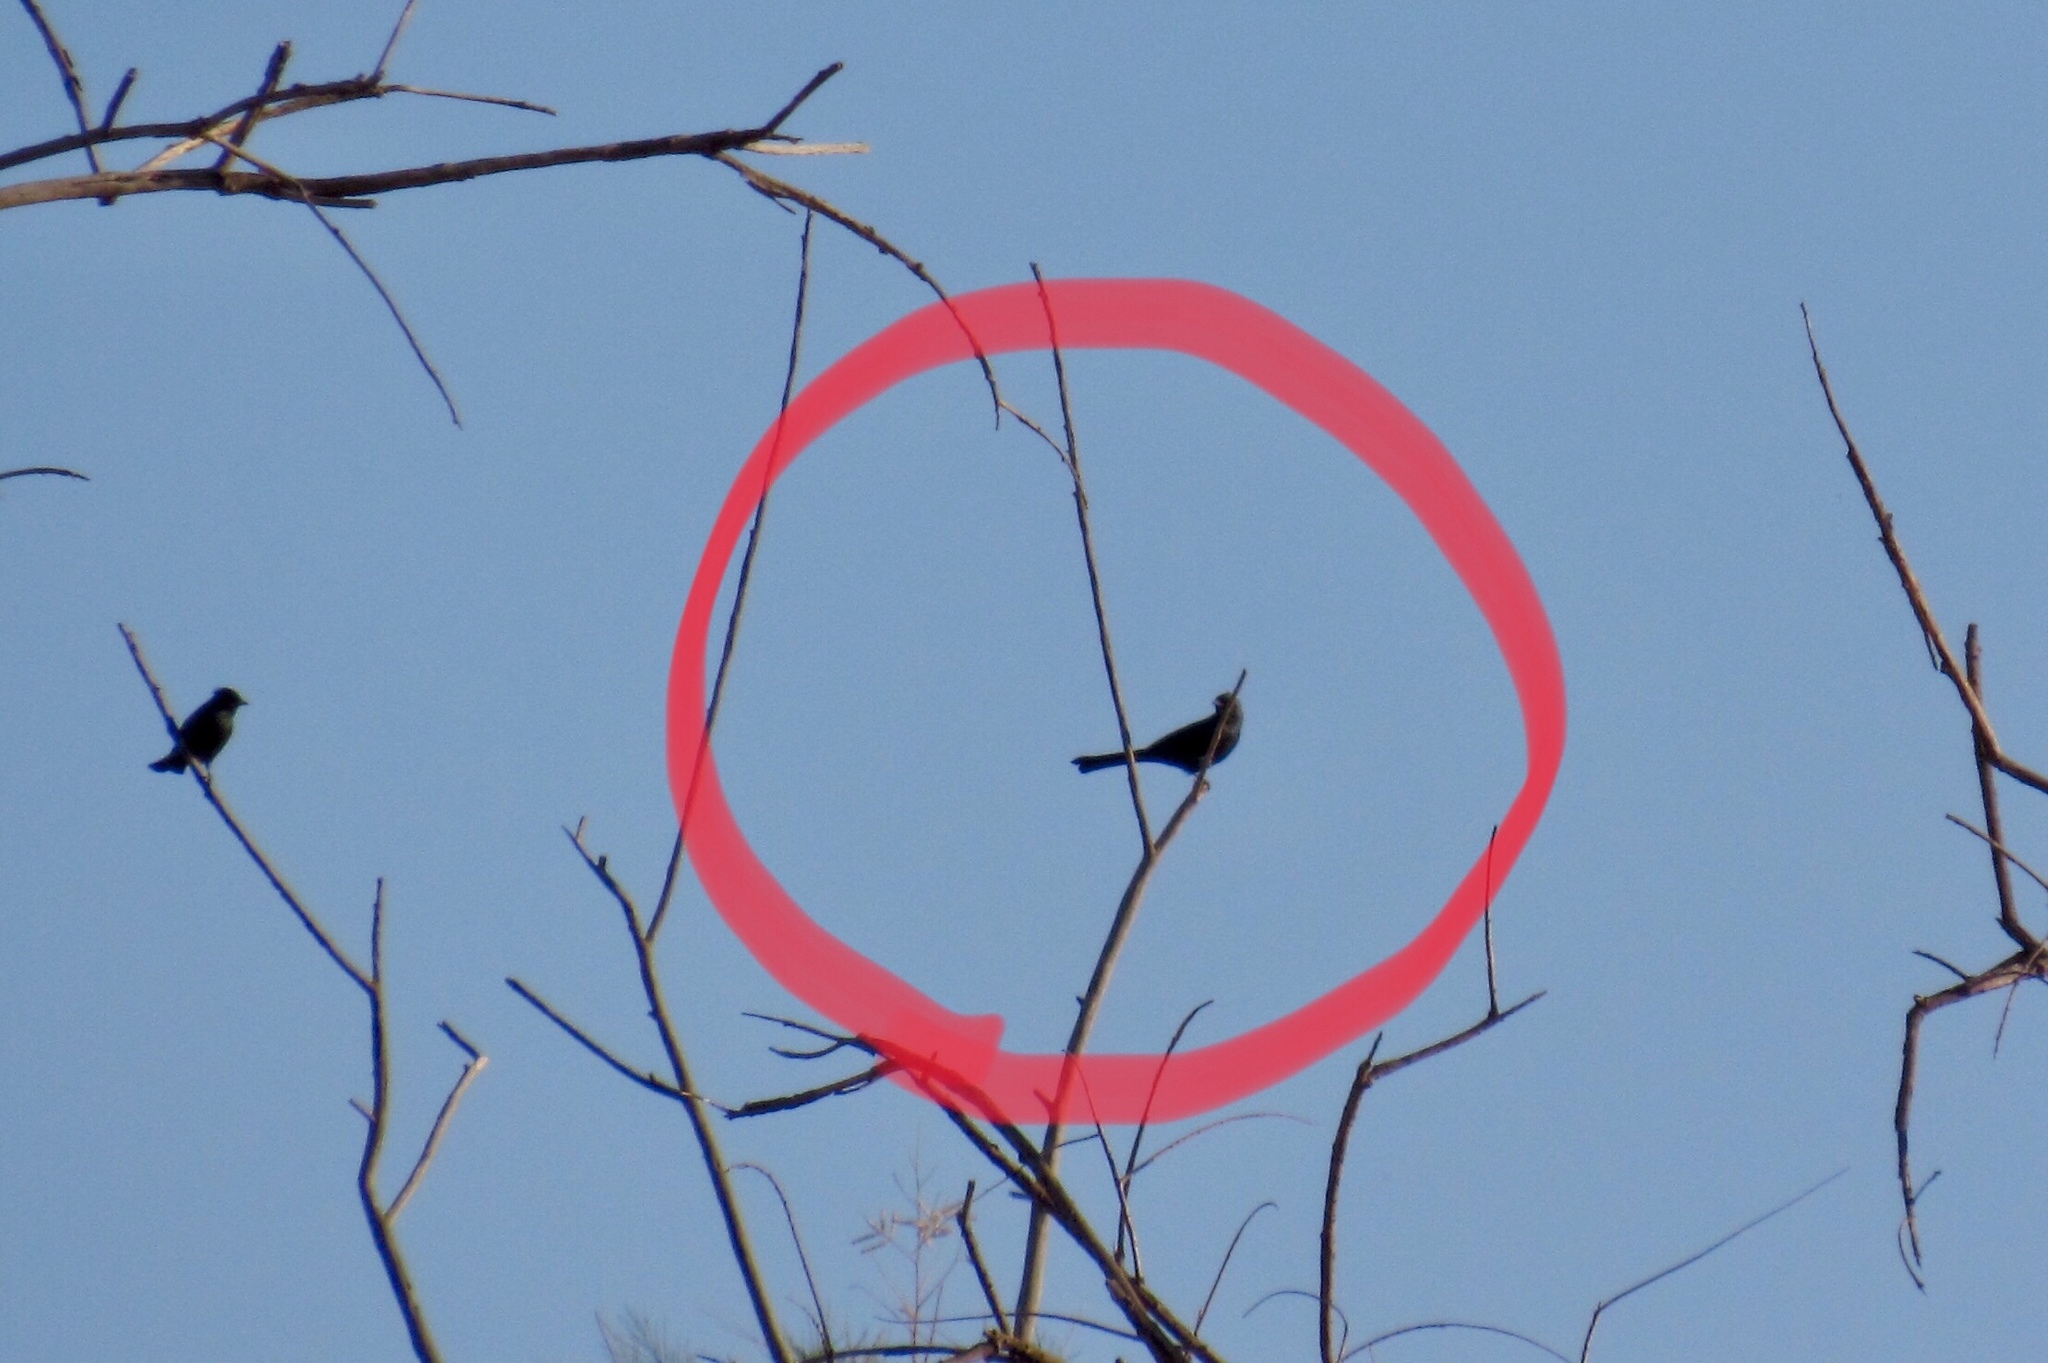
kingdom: Animalia
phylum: Chordata
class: Aves
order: Passeriformes
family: Ptilogonatidae
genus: Phainopepla
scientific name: Phainopepla nitens
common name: Phainopepla
